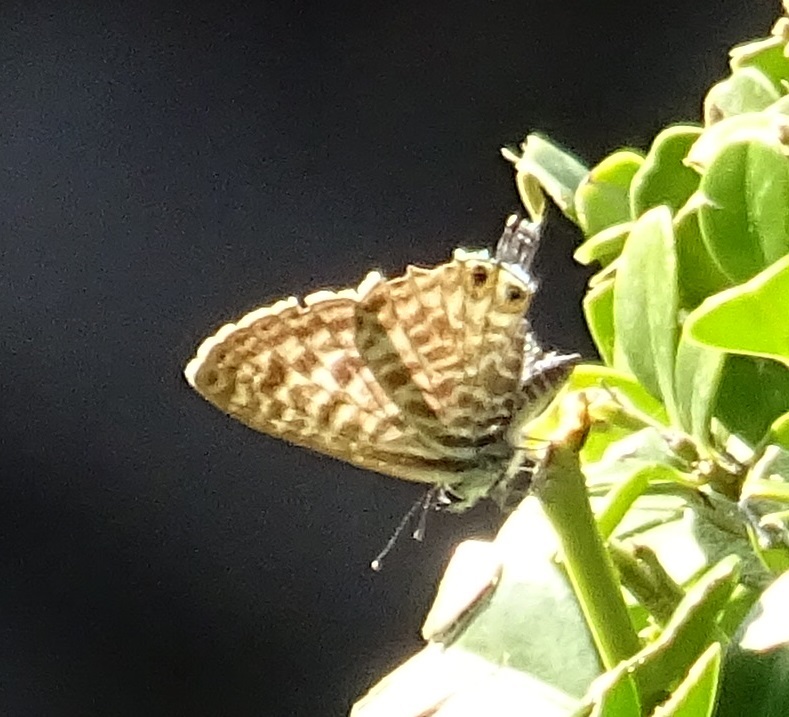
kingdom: Animalia
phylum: Arthropoda
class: Insecta
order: Lepidoptera
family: Lycaenidae
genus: Leptotes
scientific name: Leptotes pirithous
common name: Lang's short-tailed blue
